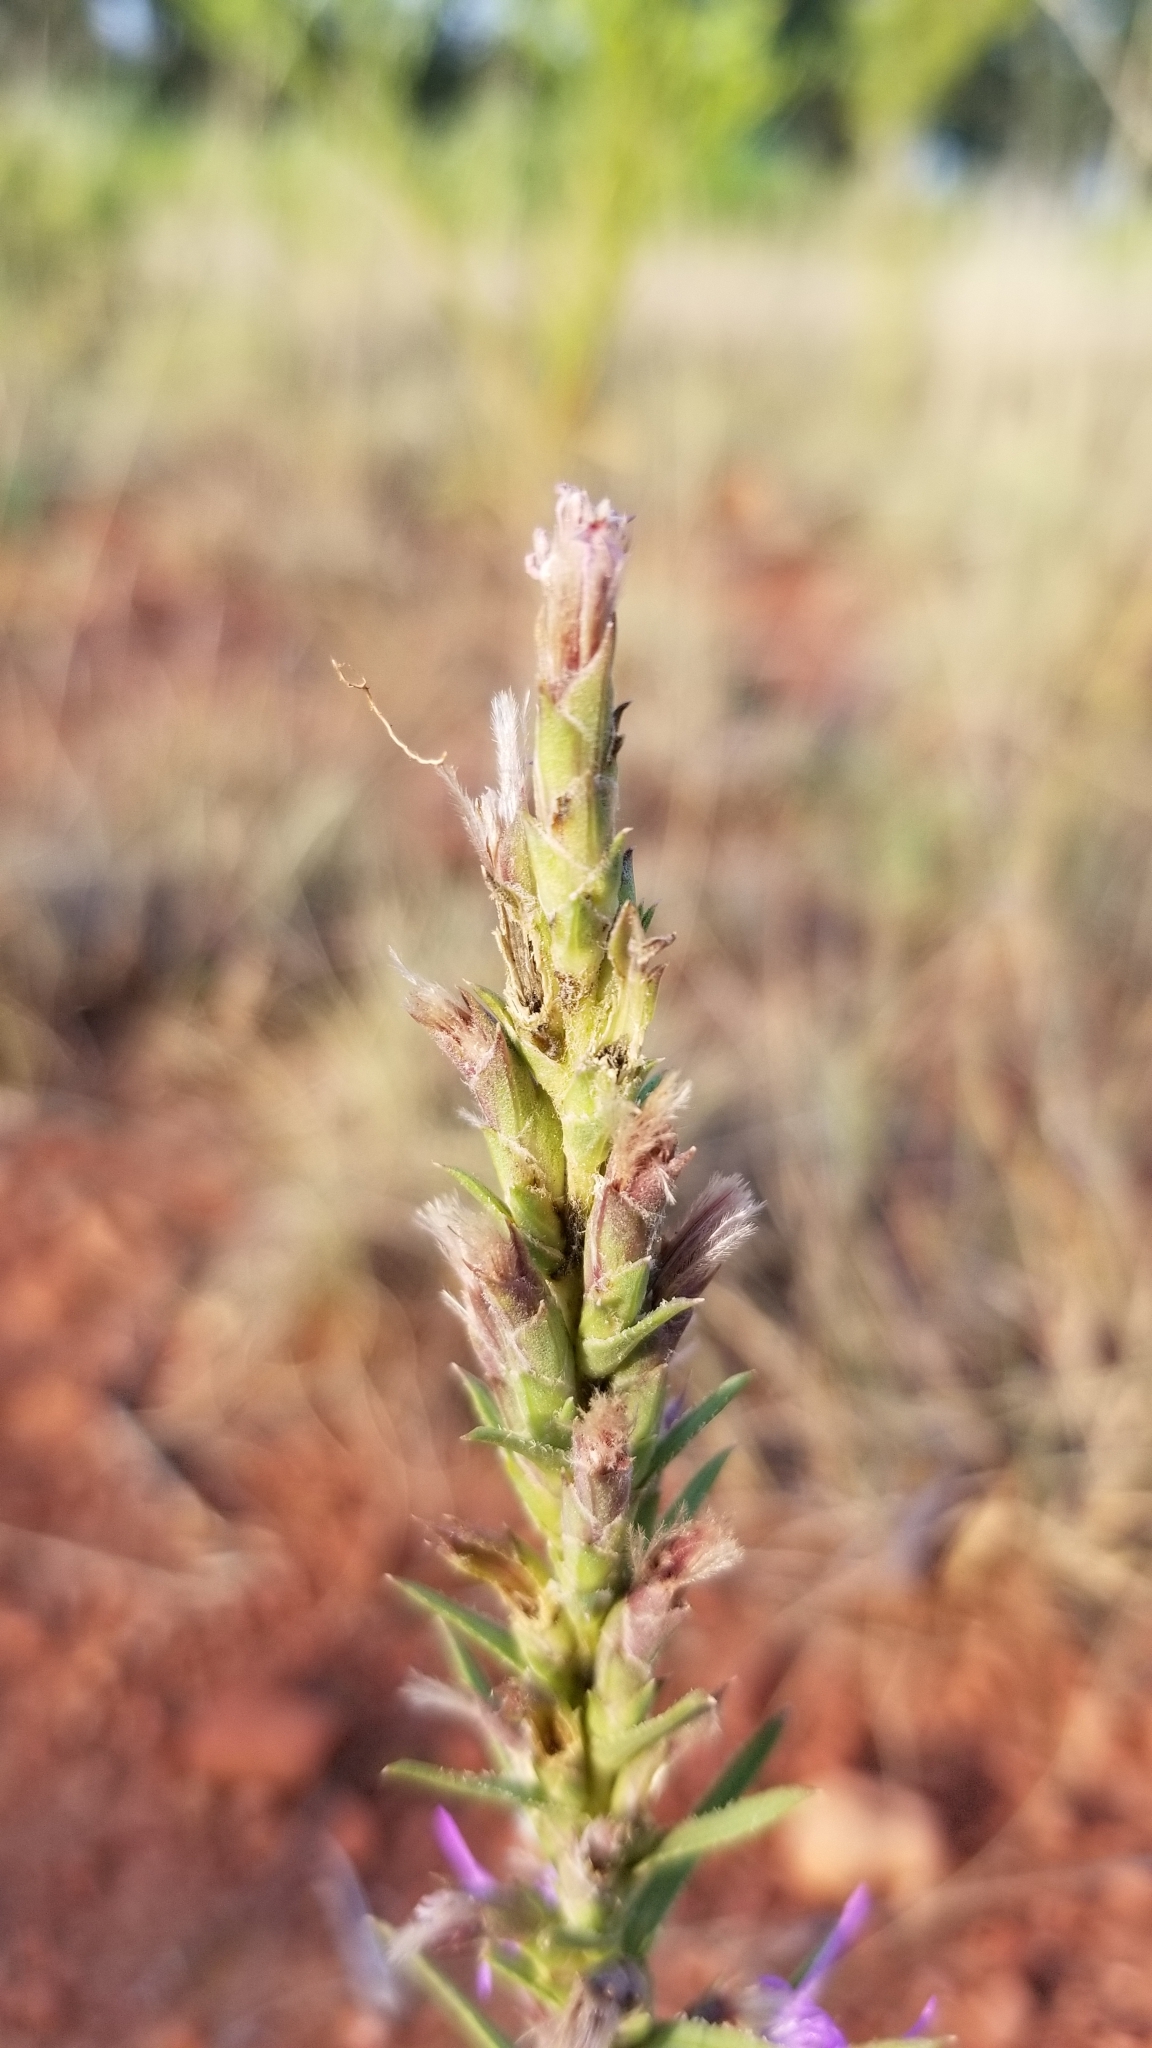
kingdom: Plantae
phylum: Tracheophyta
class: Magnoliopsida
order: Asterales
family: Asteraceae
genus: Liatris
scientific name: Liatris punctata
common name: Dotted gayfeather
